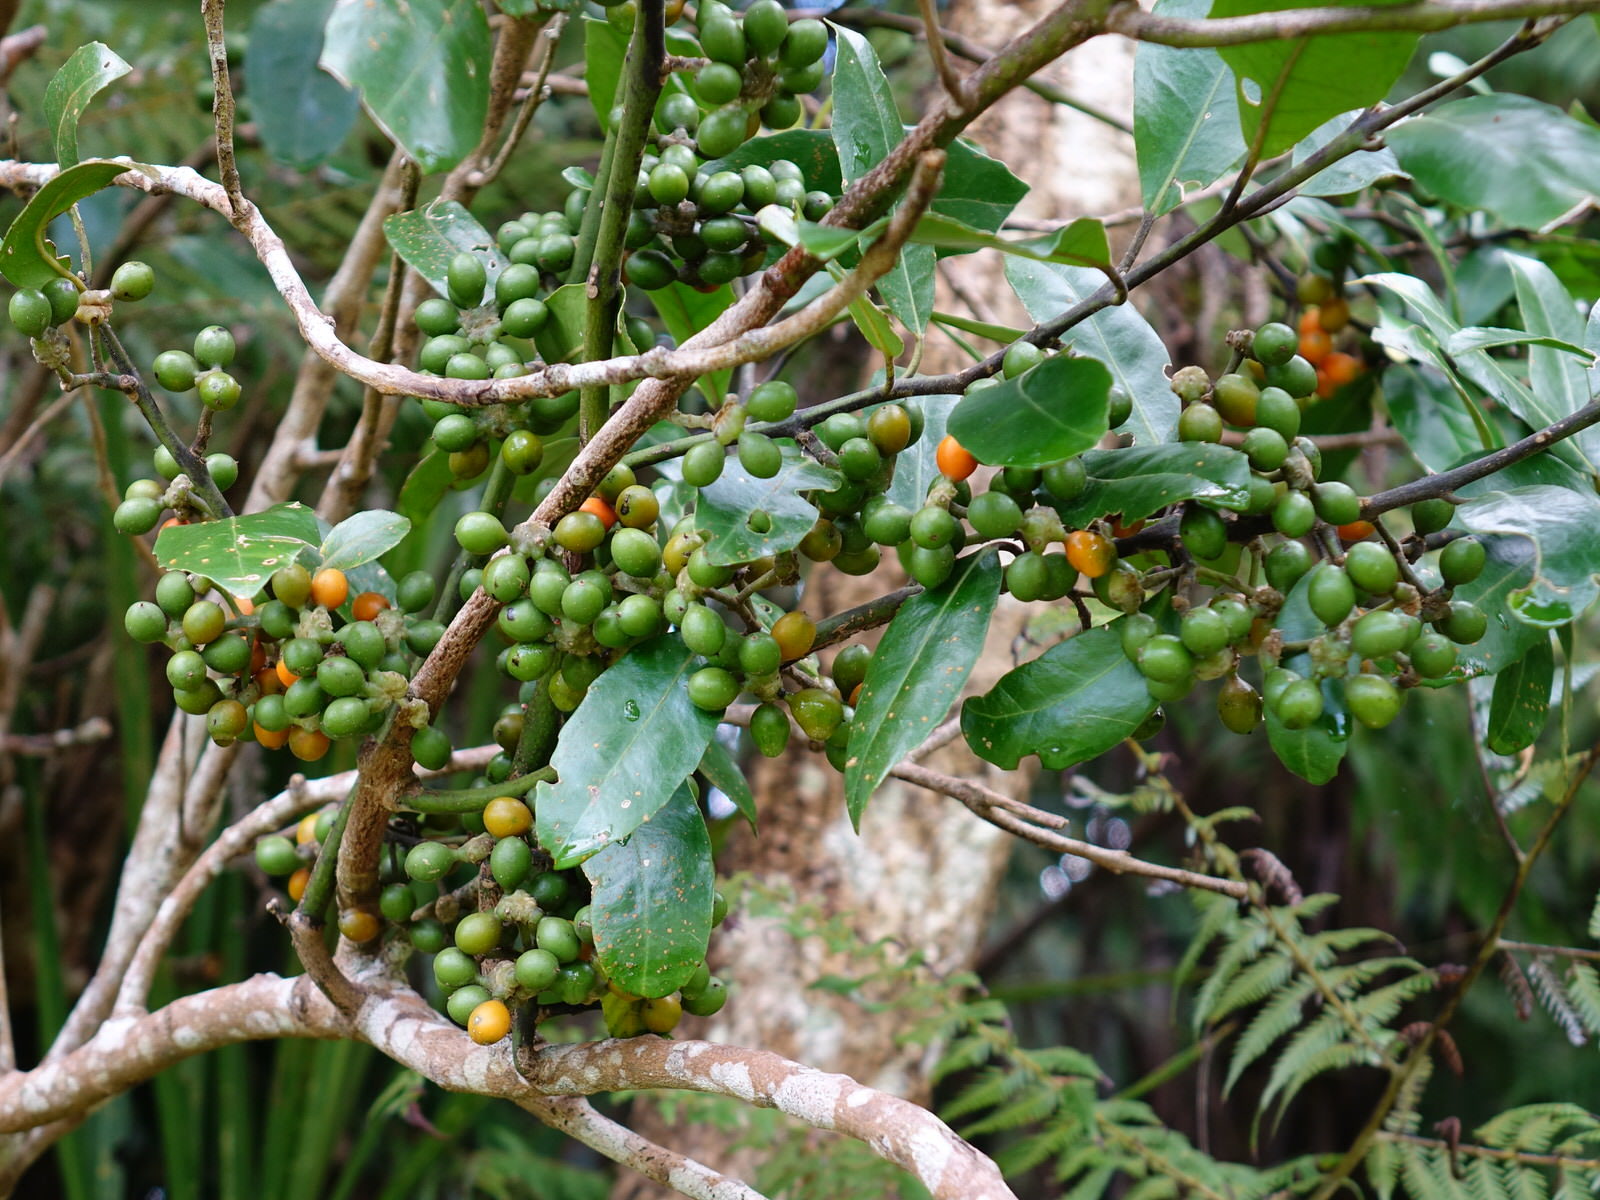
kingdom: Plantae
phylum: Tracheophyta
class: Magnoliopsida
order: Laurales
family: Monimiaceae
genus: Hedycarya
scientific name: Hedycarya arborea
